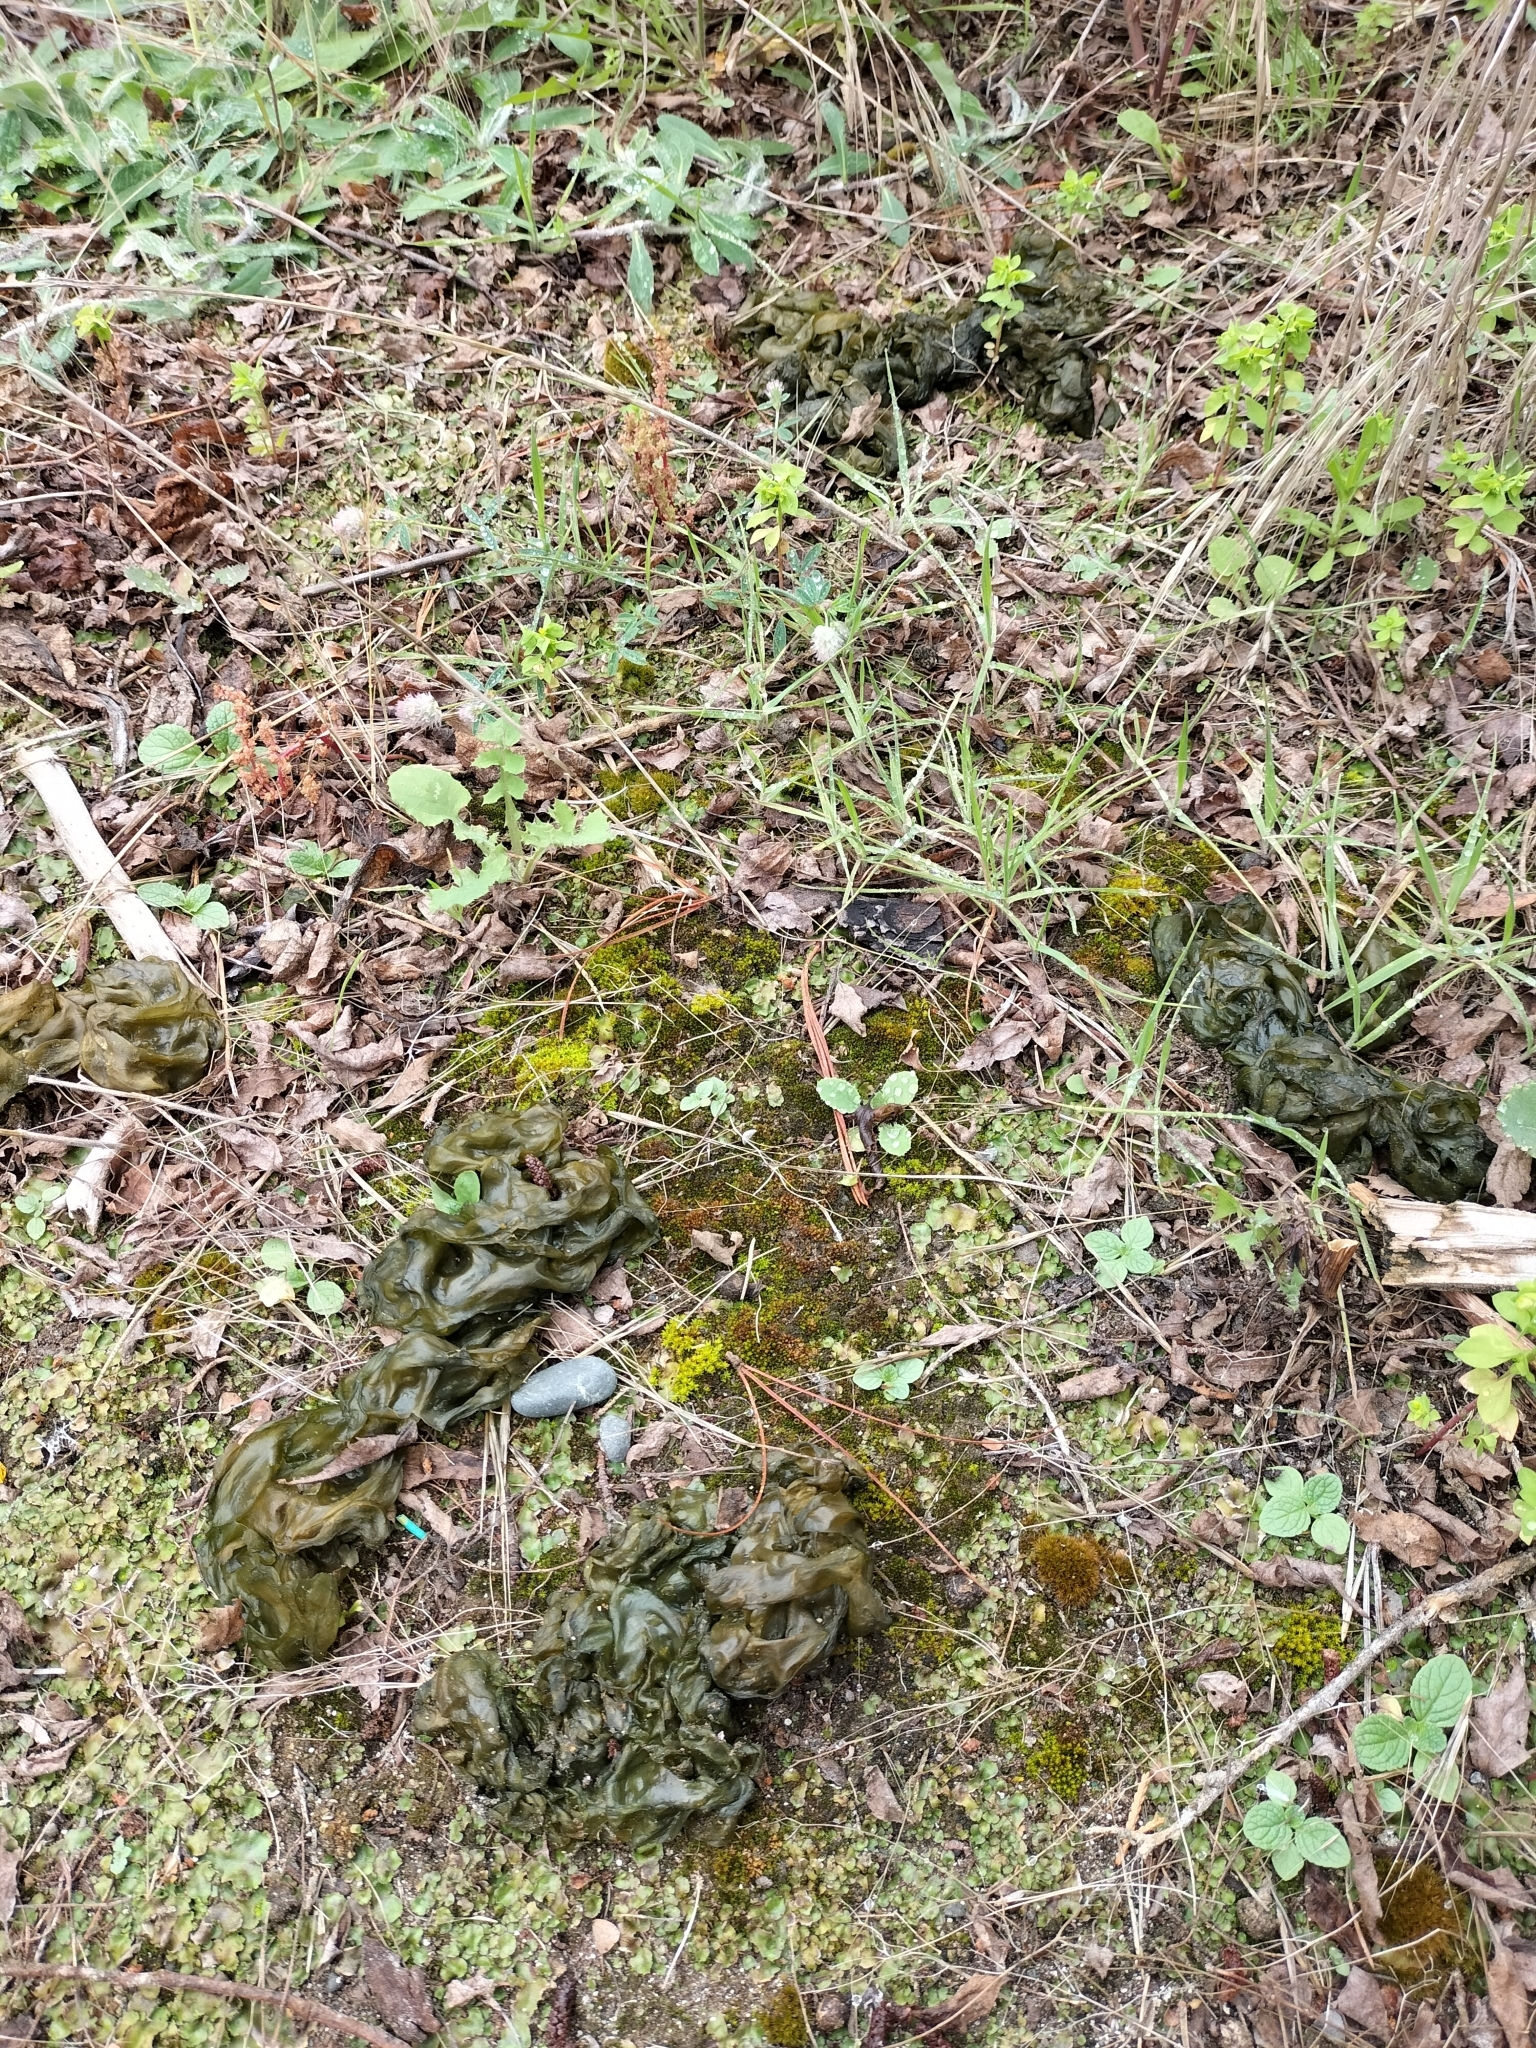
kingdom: Bacteria
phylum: Cyanobacteria
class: Cyanobacteriia
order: Cyanobacteriales
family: Nostocaceae
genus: Nostoc
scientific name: Nostoc commune
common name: Star jelly
